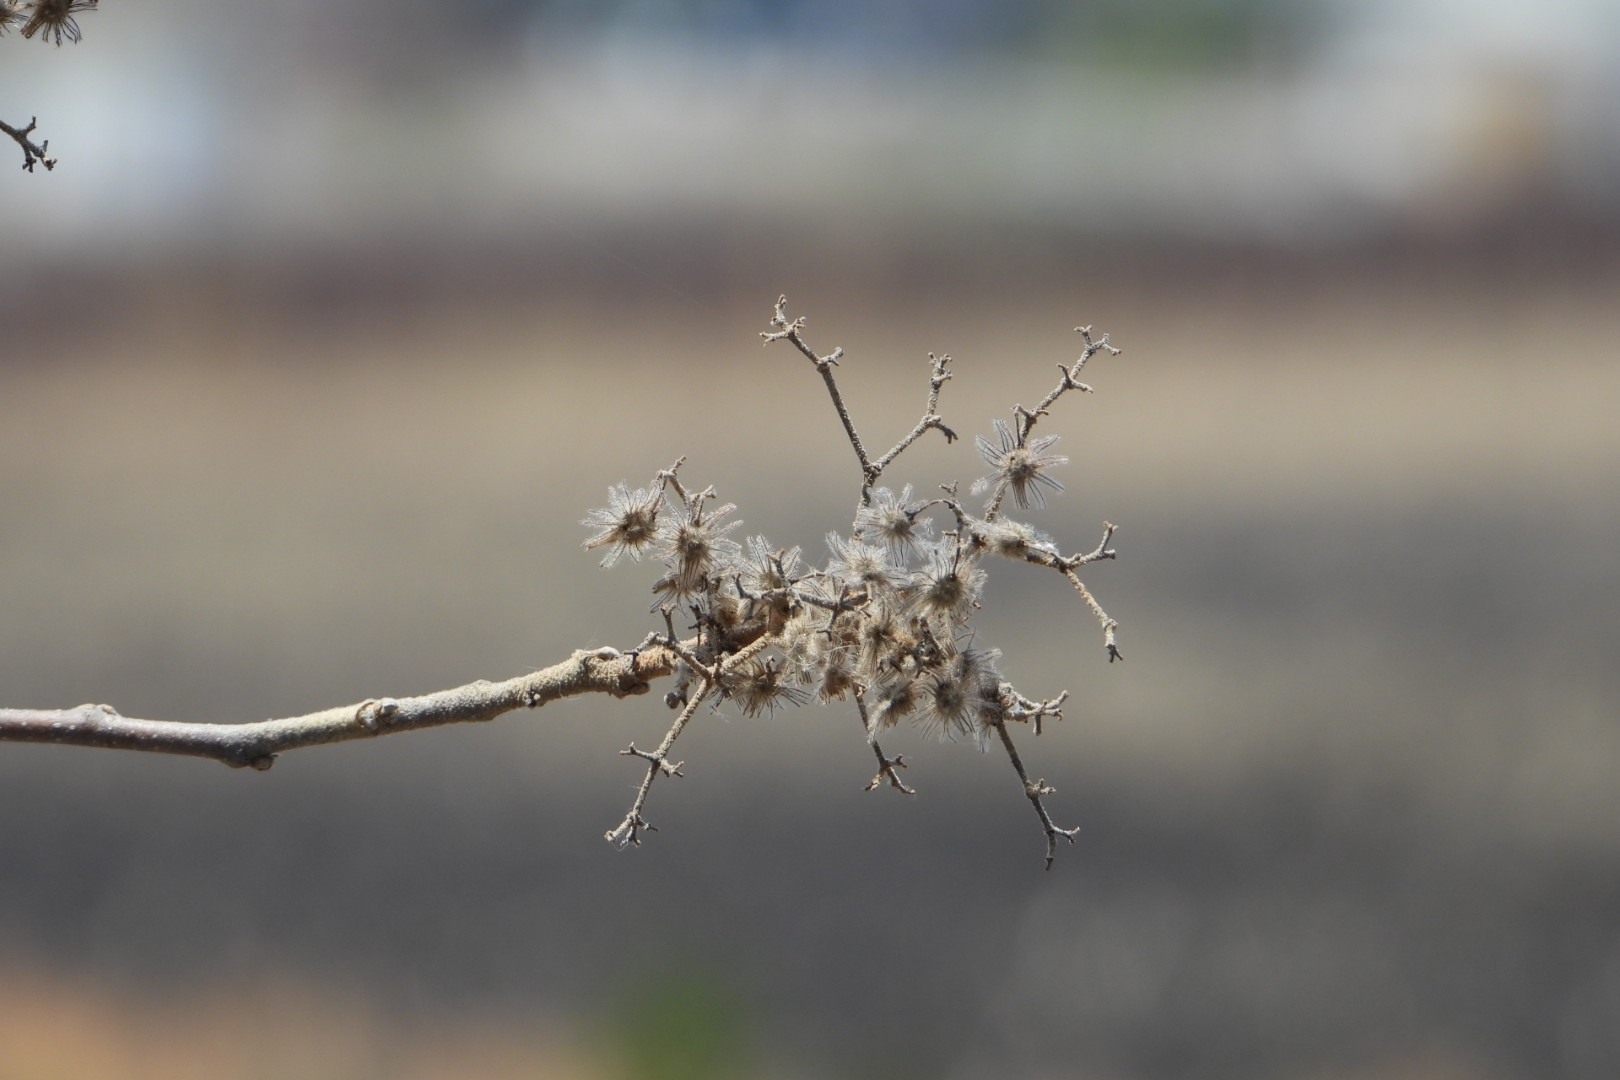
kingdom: Plantae
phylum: Tracheophyta
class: Magnoliopsida
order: Malvales
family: Malvaceae
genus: Heliocarpus
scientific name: Heliocarpus terebinthinaceus
